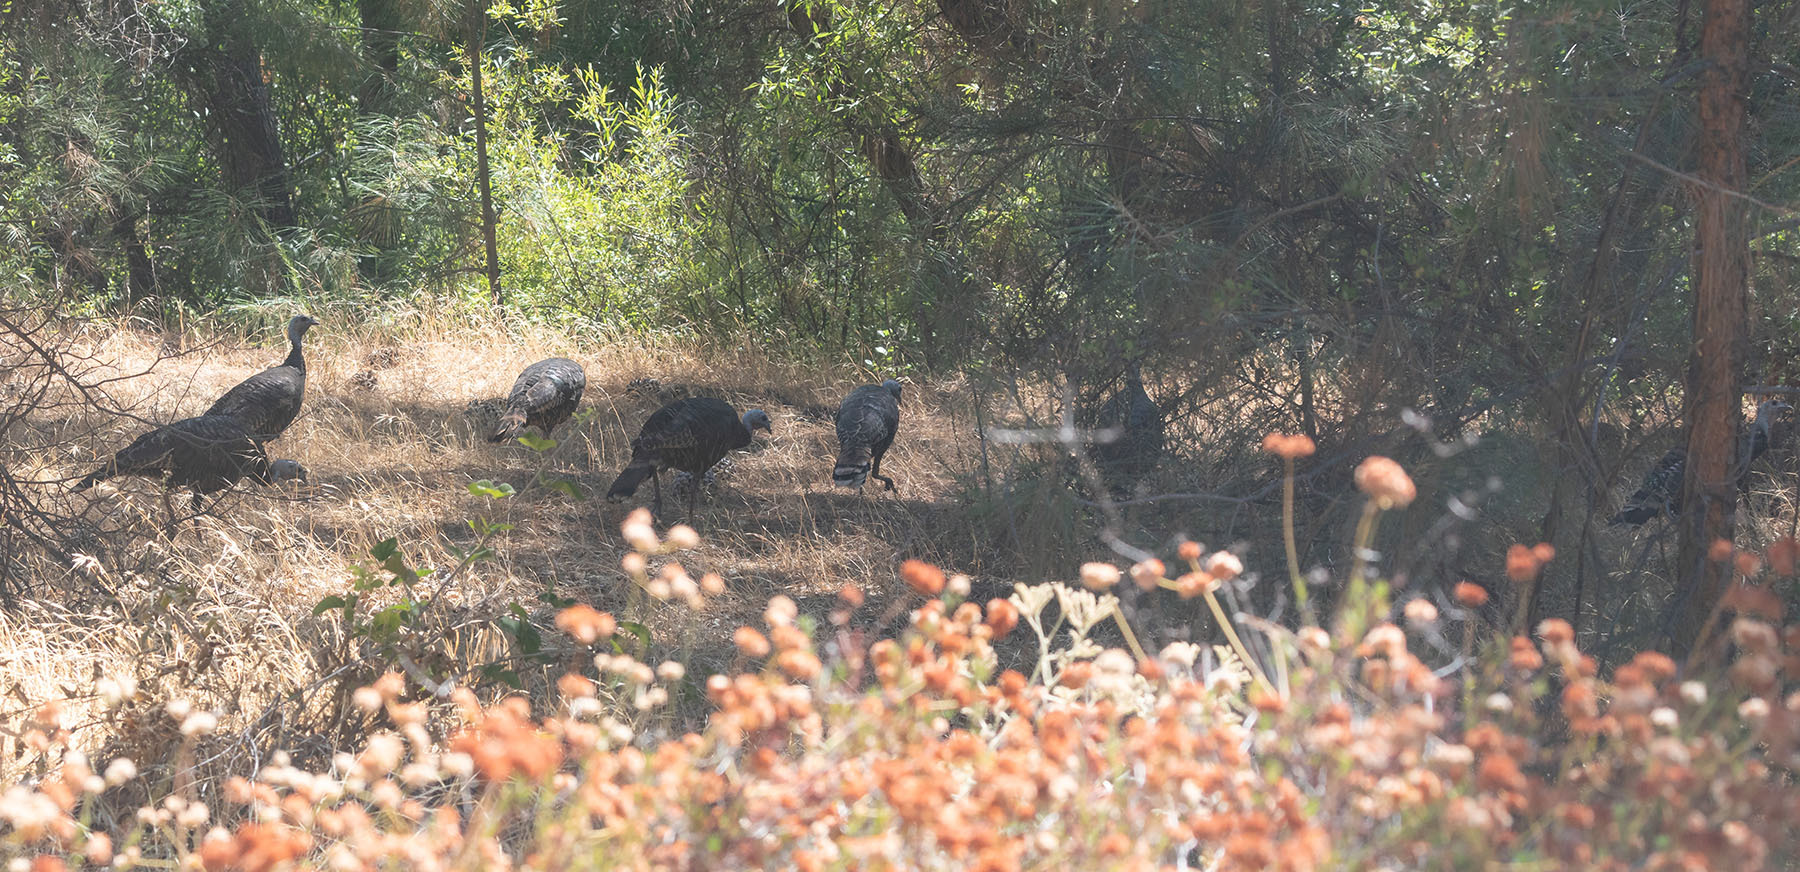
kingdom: Animalia
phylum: Chordata
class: Aves
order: Galliformes
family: Phasianidae
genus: Meleagris
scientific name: Meleagris gallopavo
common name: Wild turkey
